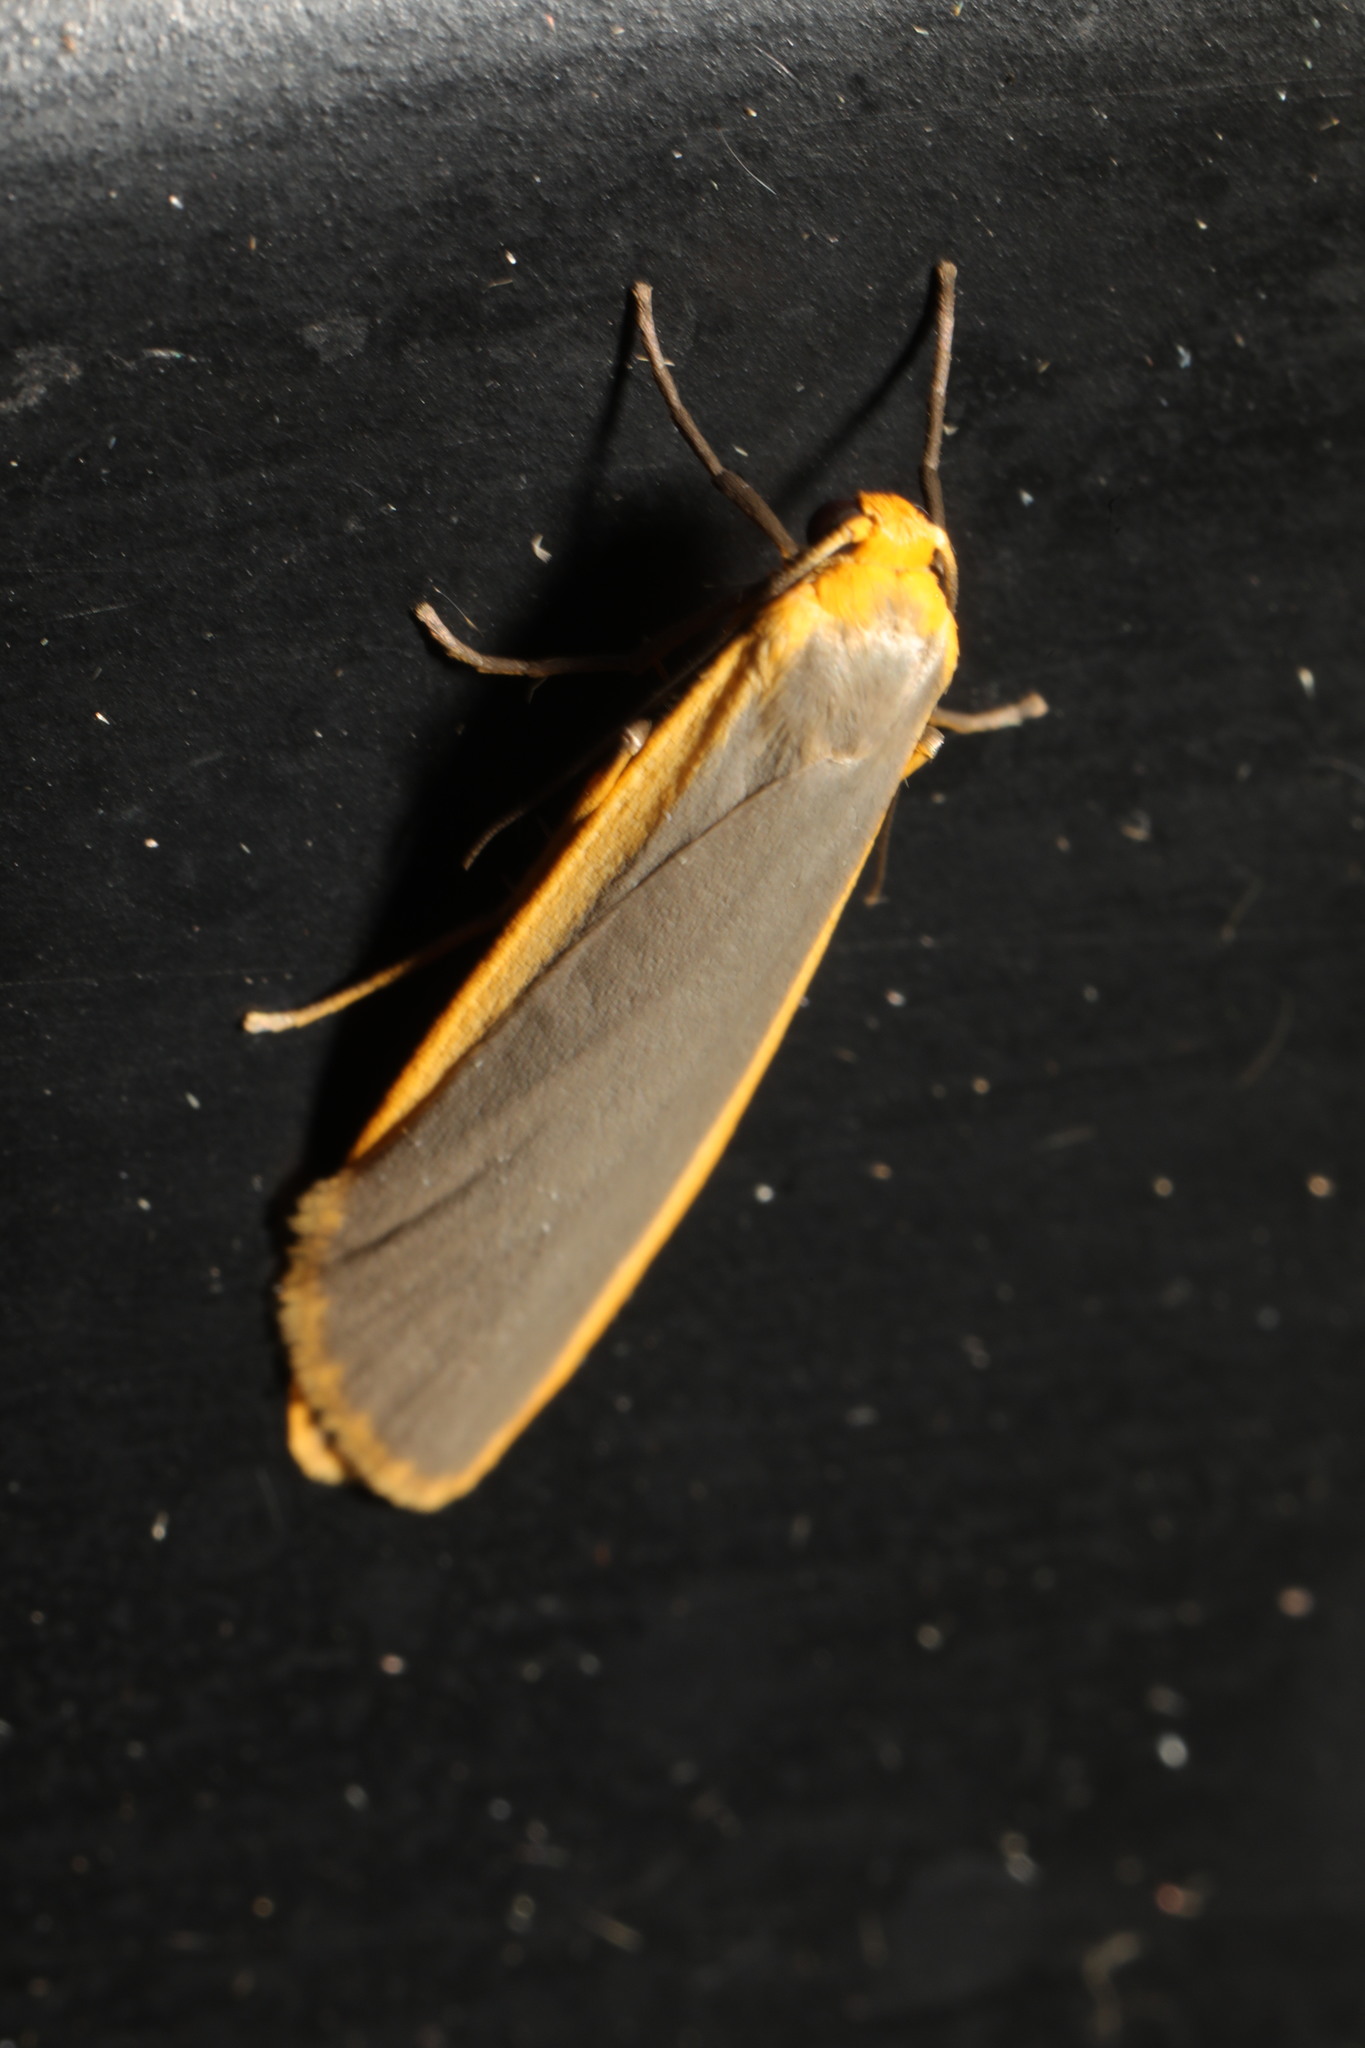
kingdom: Animalia
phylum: Arthropoda
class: Insecta
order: Lepidoptera
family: Erebidae
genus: Nyea
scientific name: Nyea lurideola
